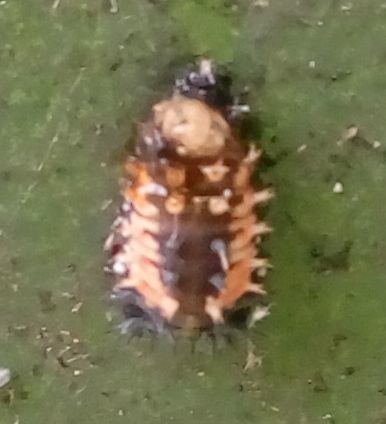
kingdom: Animalia
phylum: Arthropoda
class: Insecta
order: Coleoptera
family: Coccinellidae
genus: Harmonia
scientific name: Harmonia axyridis
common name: Harlequin ladybird
